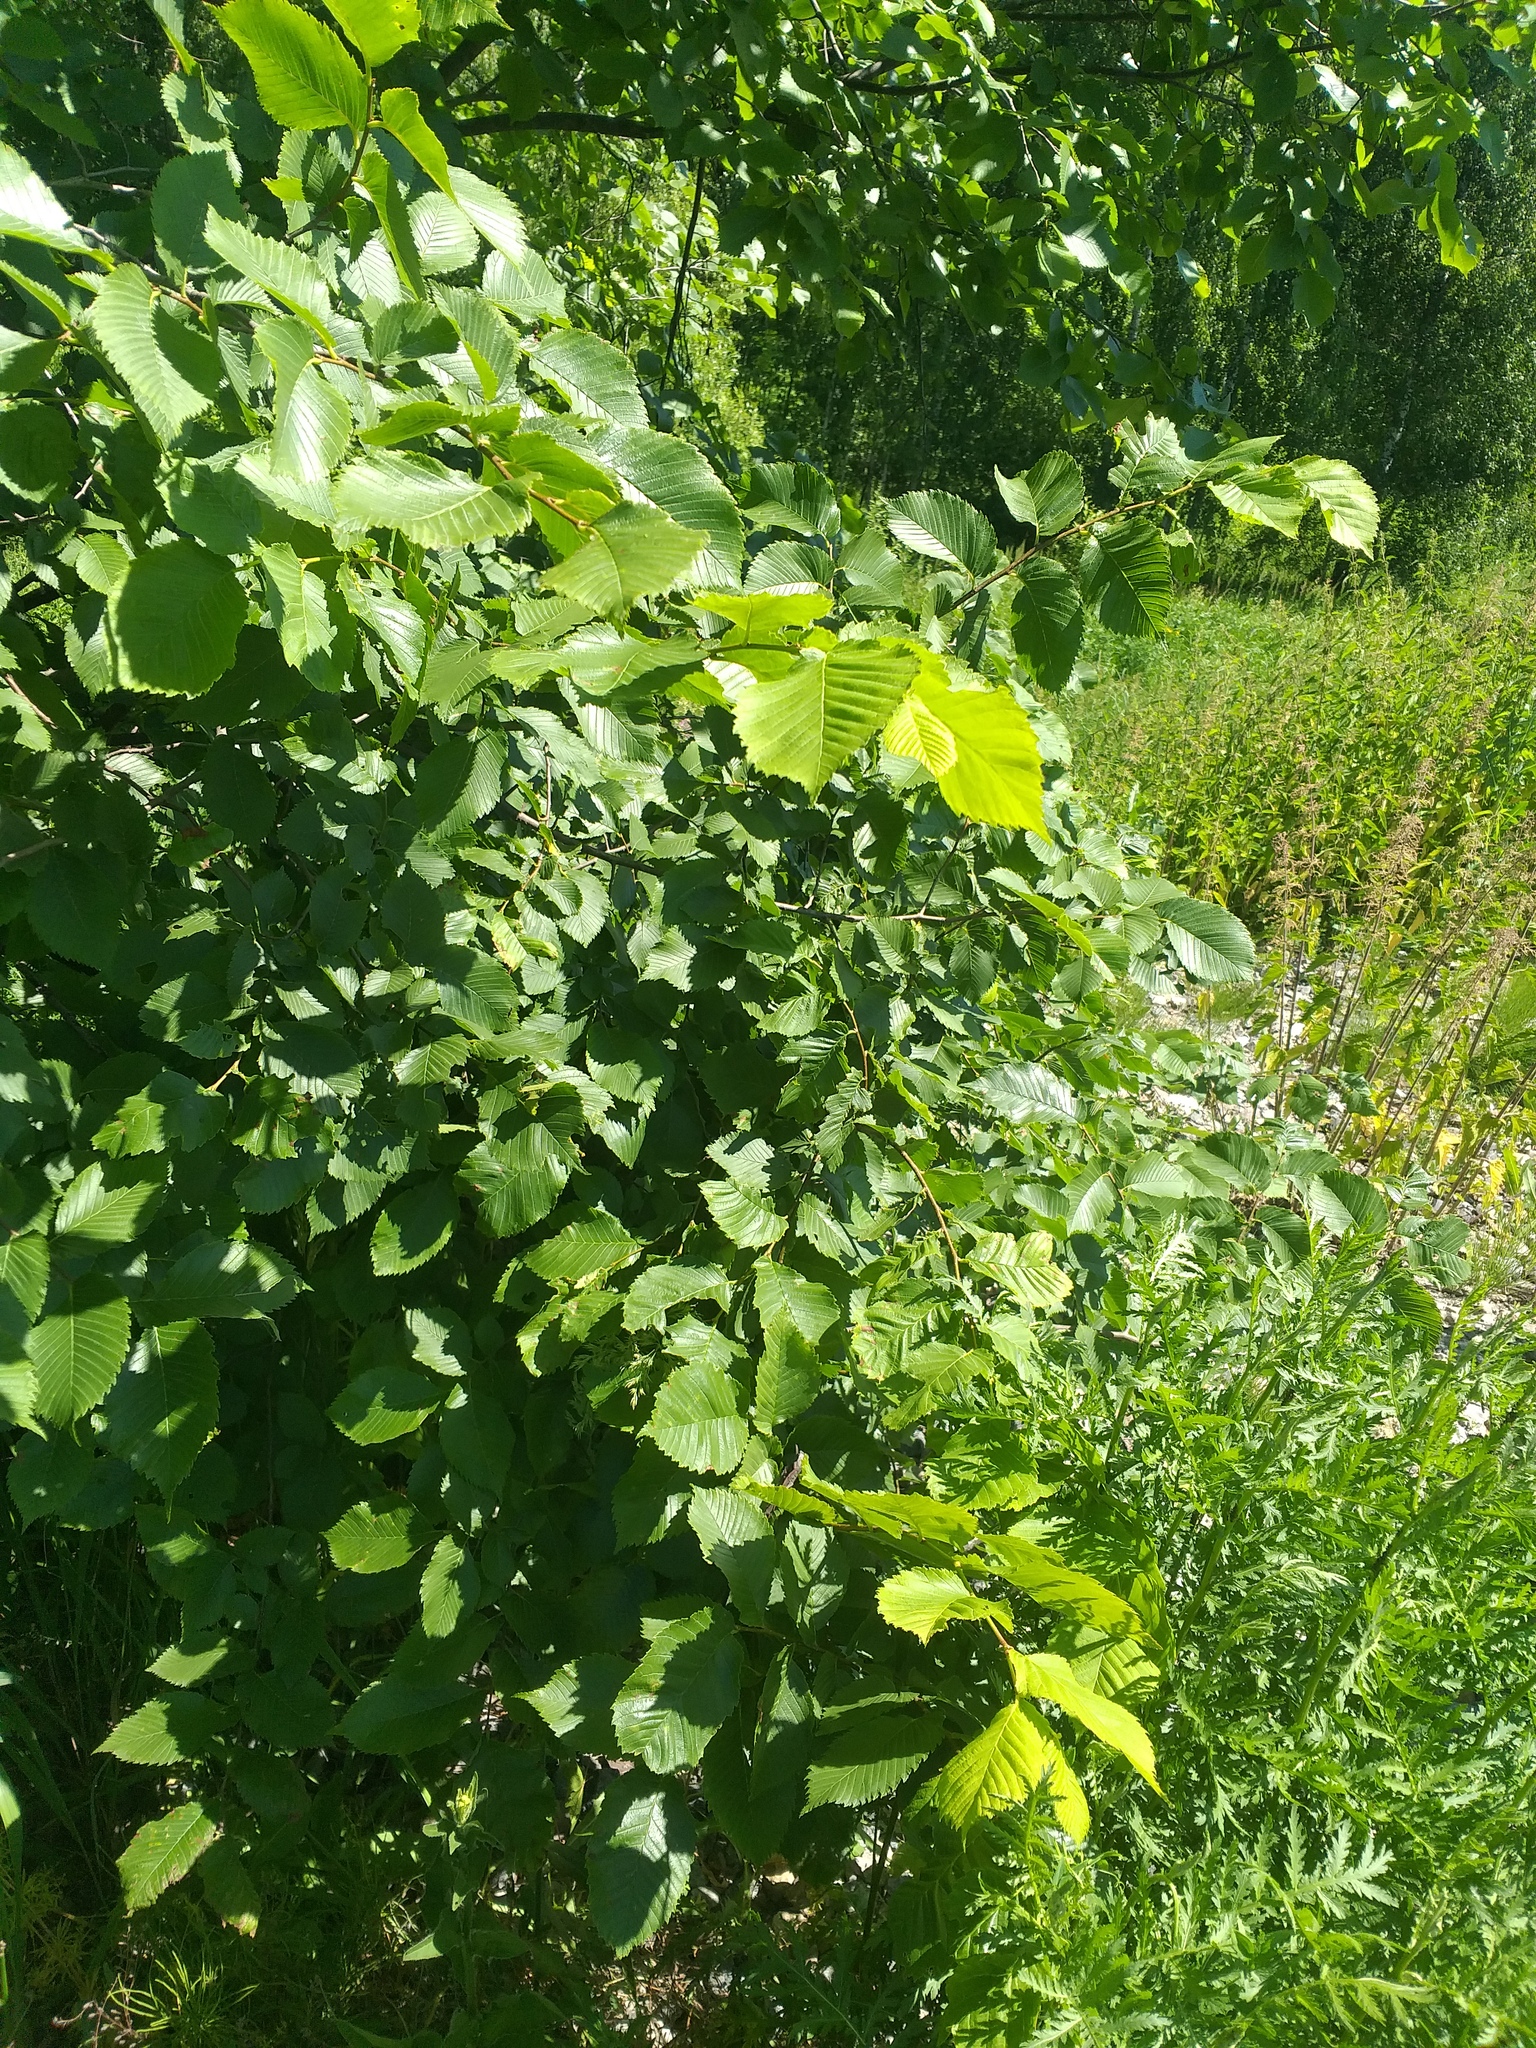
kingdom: Plantae
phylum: Tracheophyta
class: Magnoliopsida
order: Rosales
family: Ulmaceae
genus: Ulmus
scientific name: Ulmus laevis
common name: European white-elm
